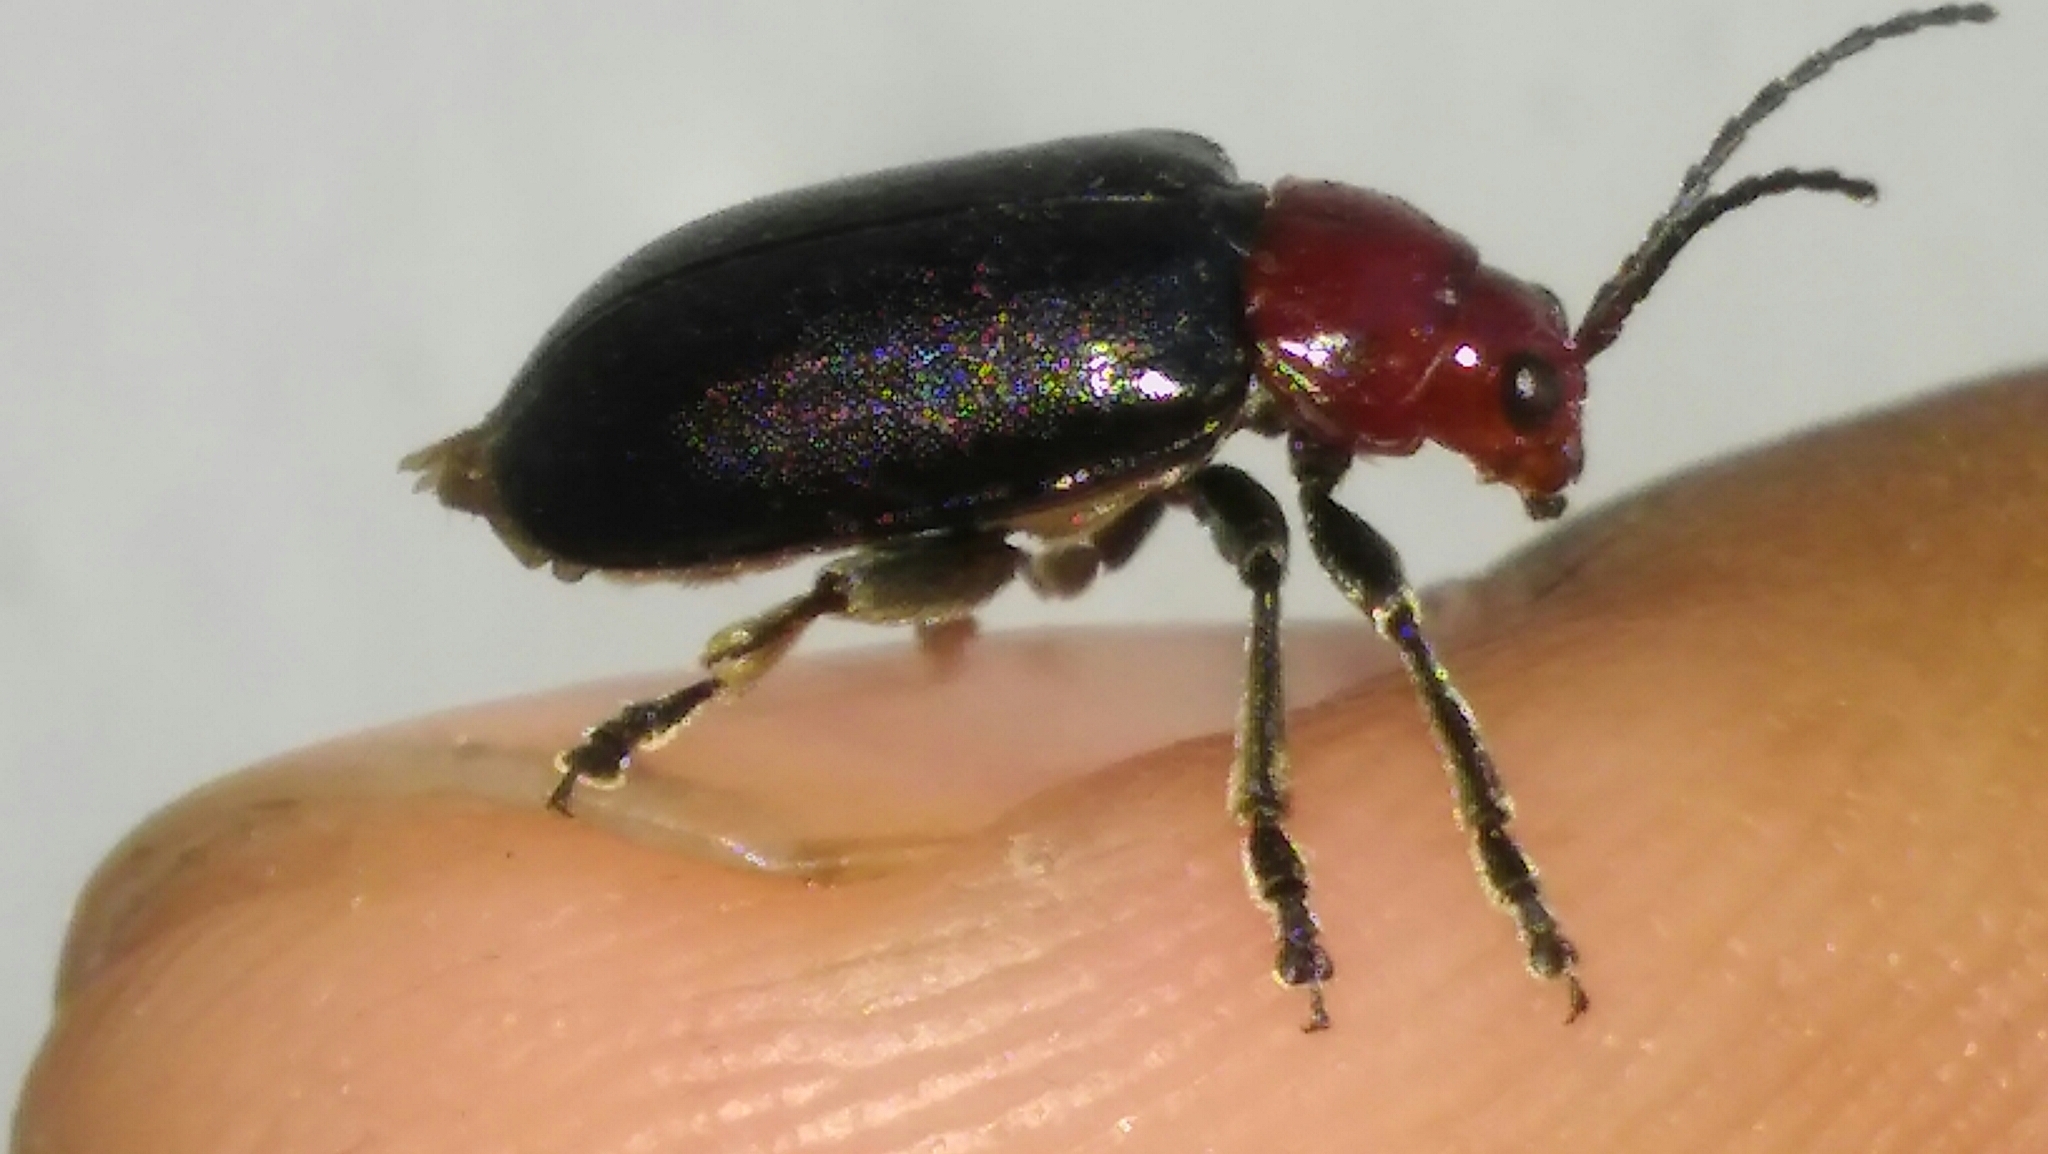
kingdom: Animalia
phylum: Arthropoda
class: Insecta
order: Coleoptera
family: Chrysomelidae
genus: Cacoscelis
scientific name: Cacoscelis
